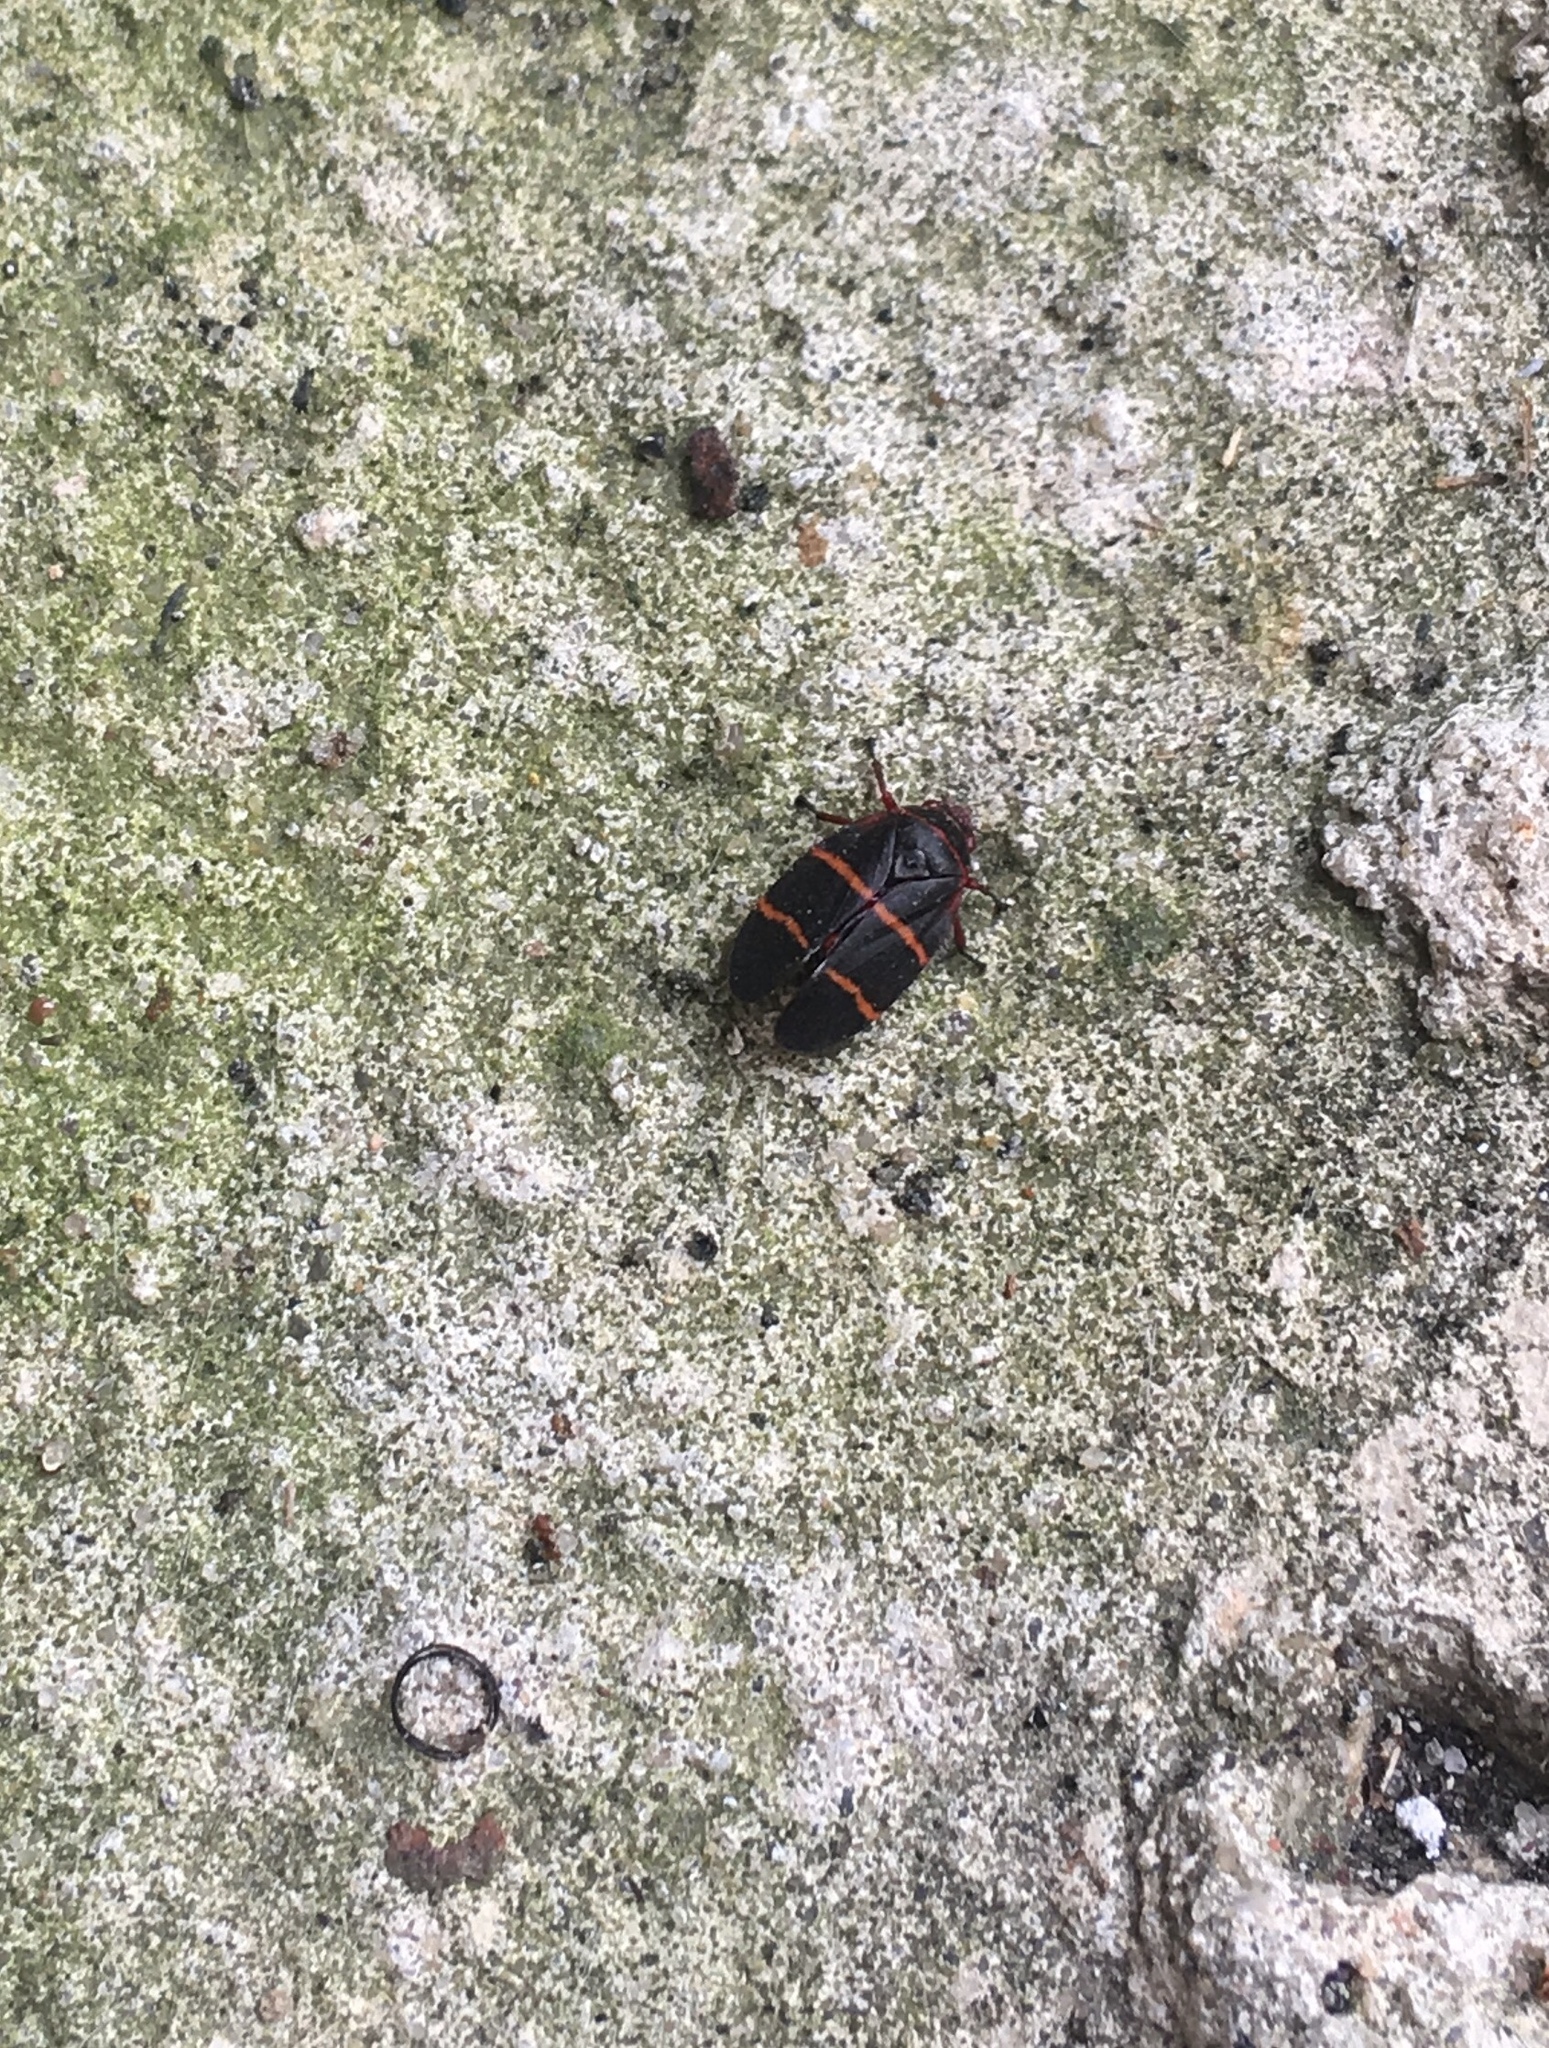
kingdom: Animalia
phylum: Arthropoda
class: Insecta
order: Hemiptera
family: Cercopidae
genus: Prosapia
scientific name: Prosapia bicincta
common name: Twolined spittlebug
